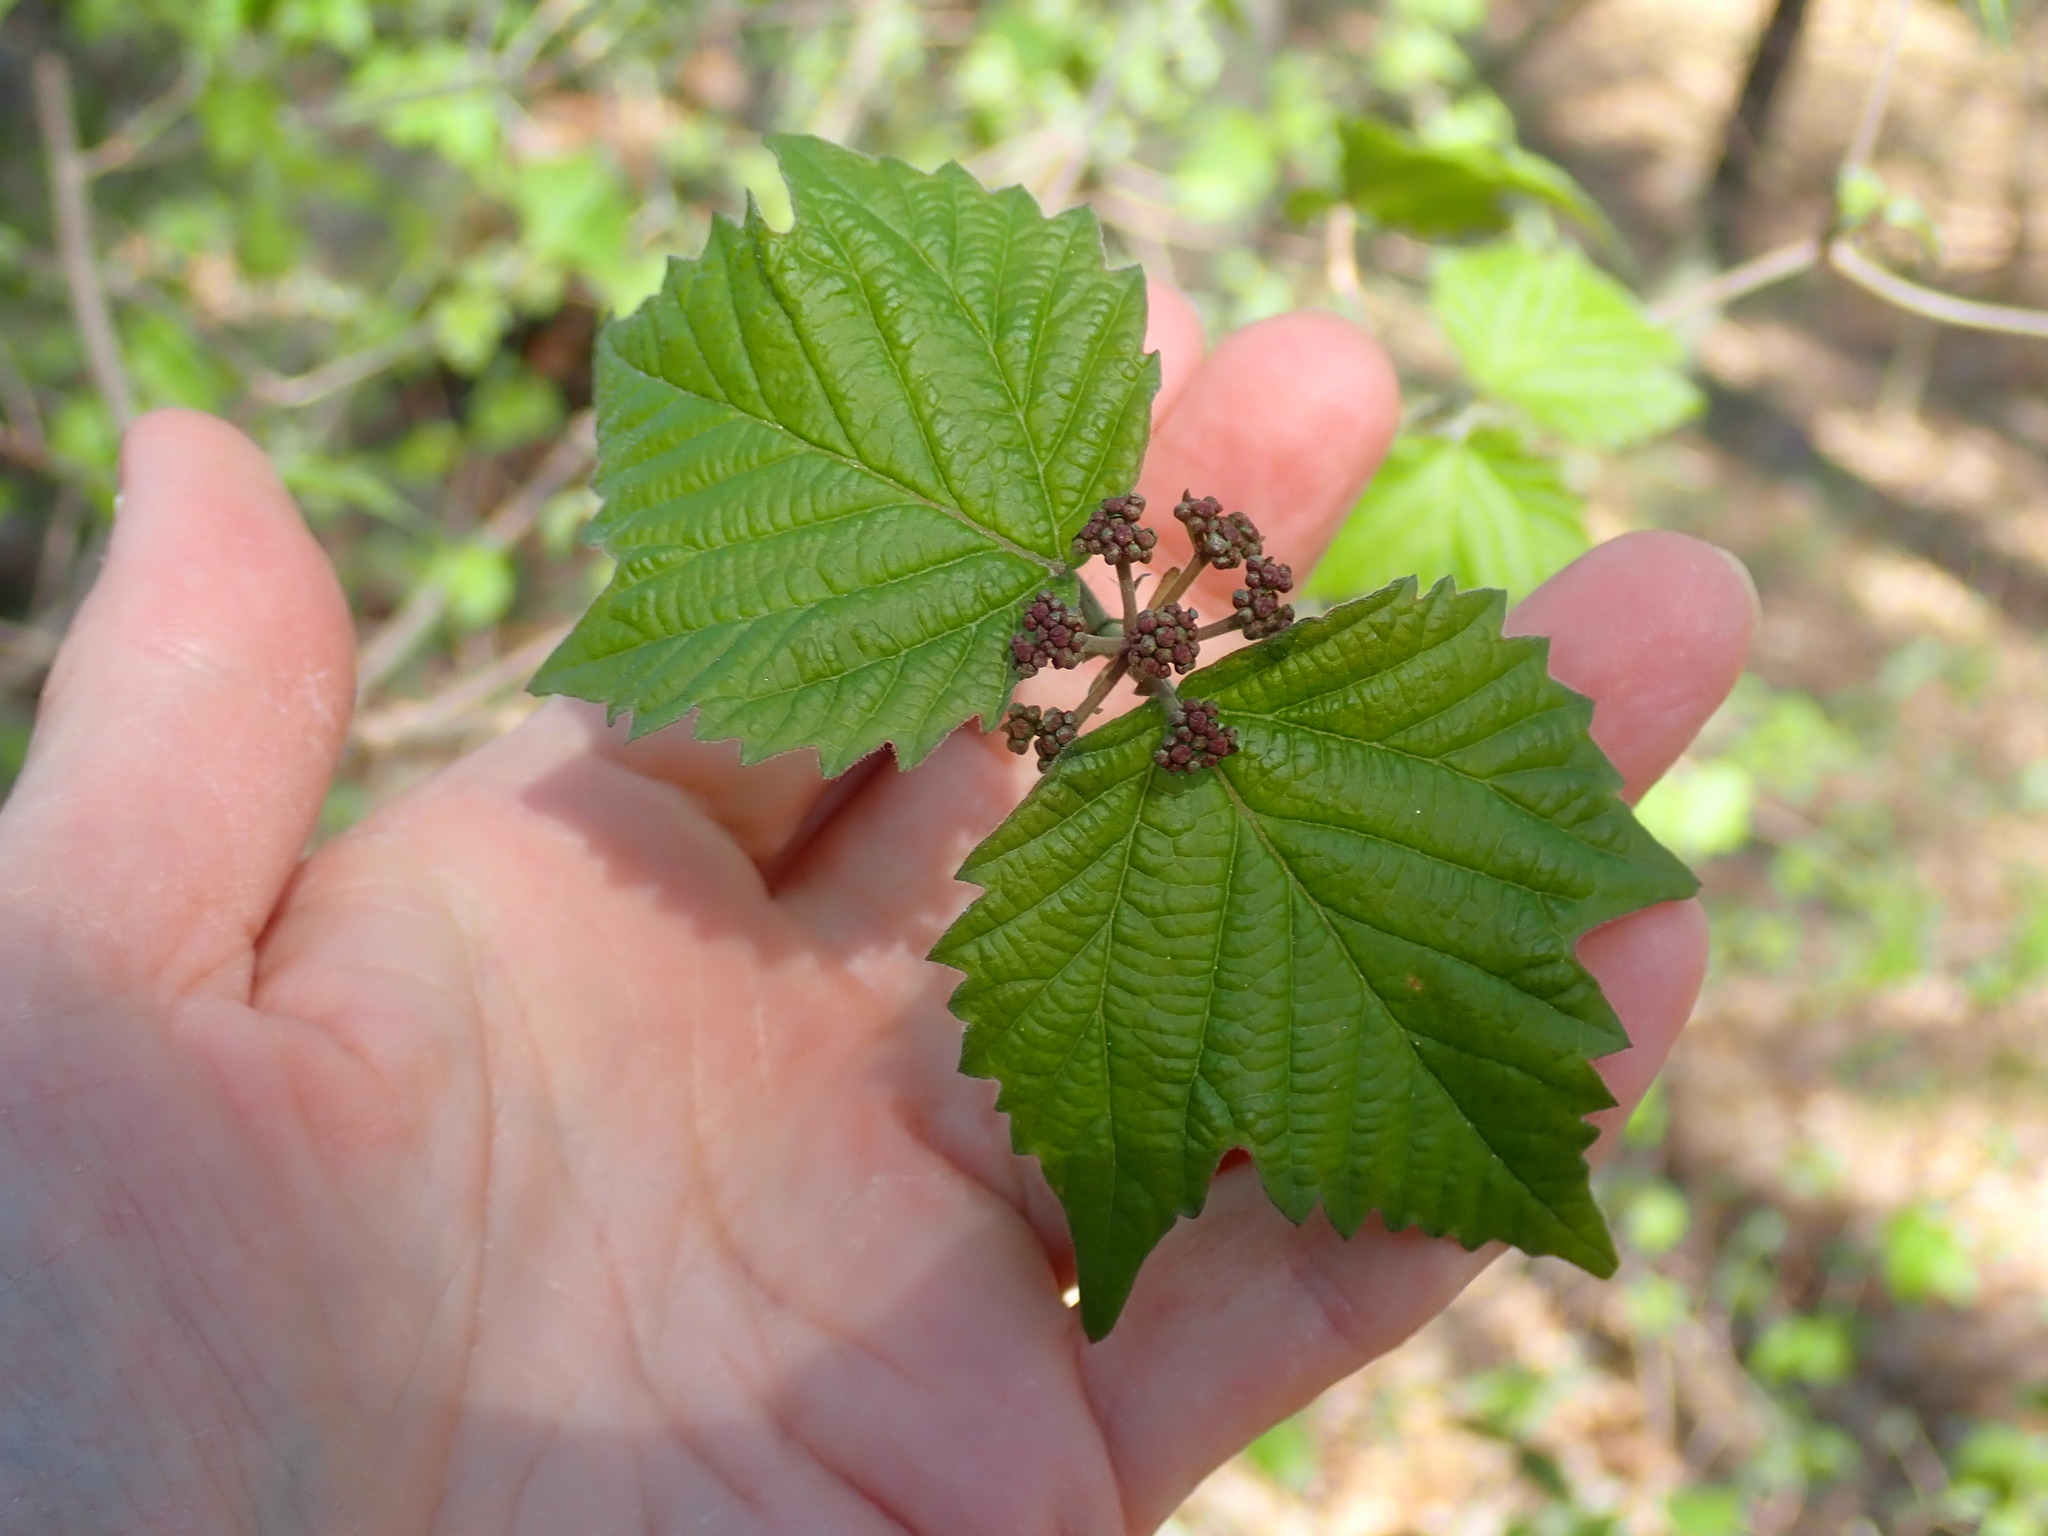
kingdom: Plantae
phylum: Tracheophyta
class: Magnoliopsida
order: Dipsacales
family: Viburnaceae
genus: Viburnum
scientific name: Viburnum acerifolium
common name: Dockmackie
